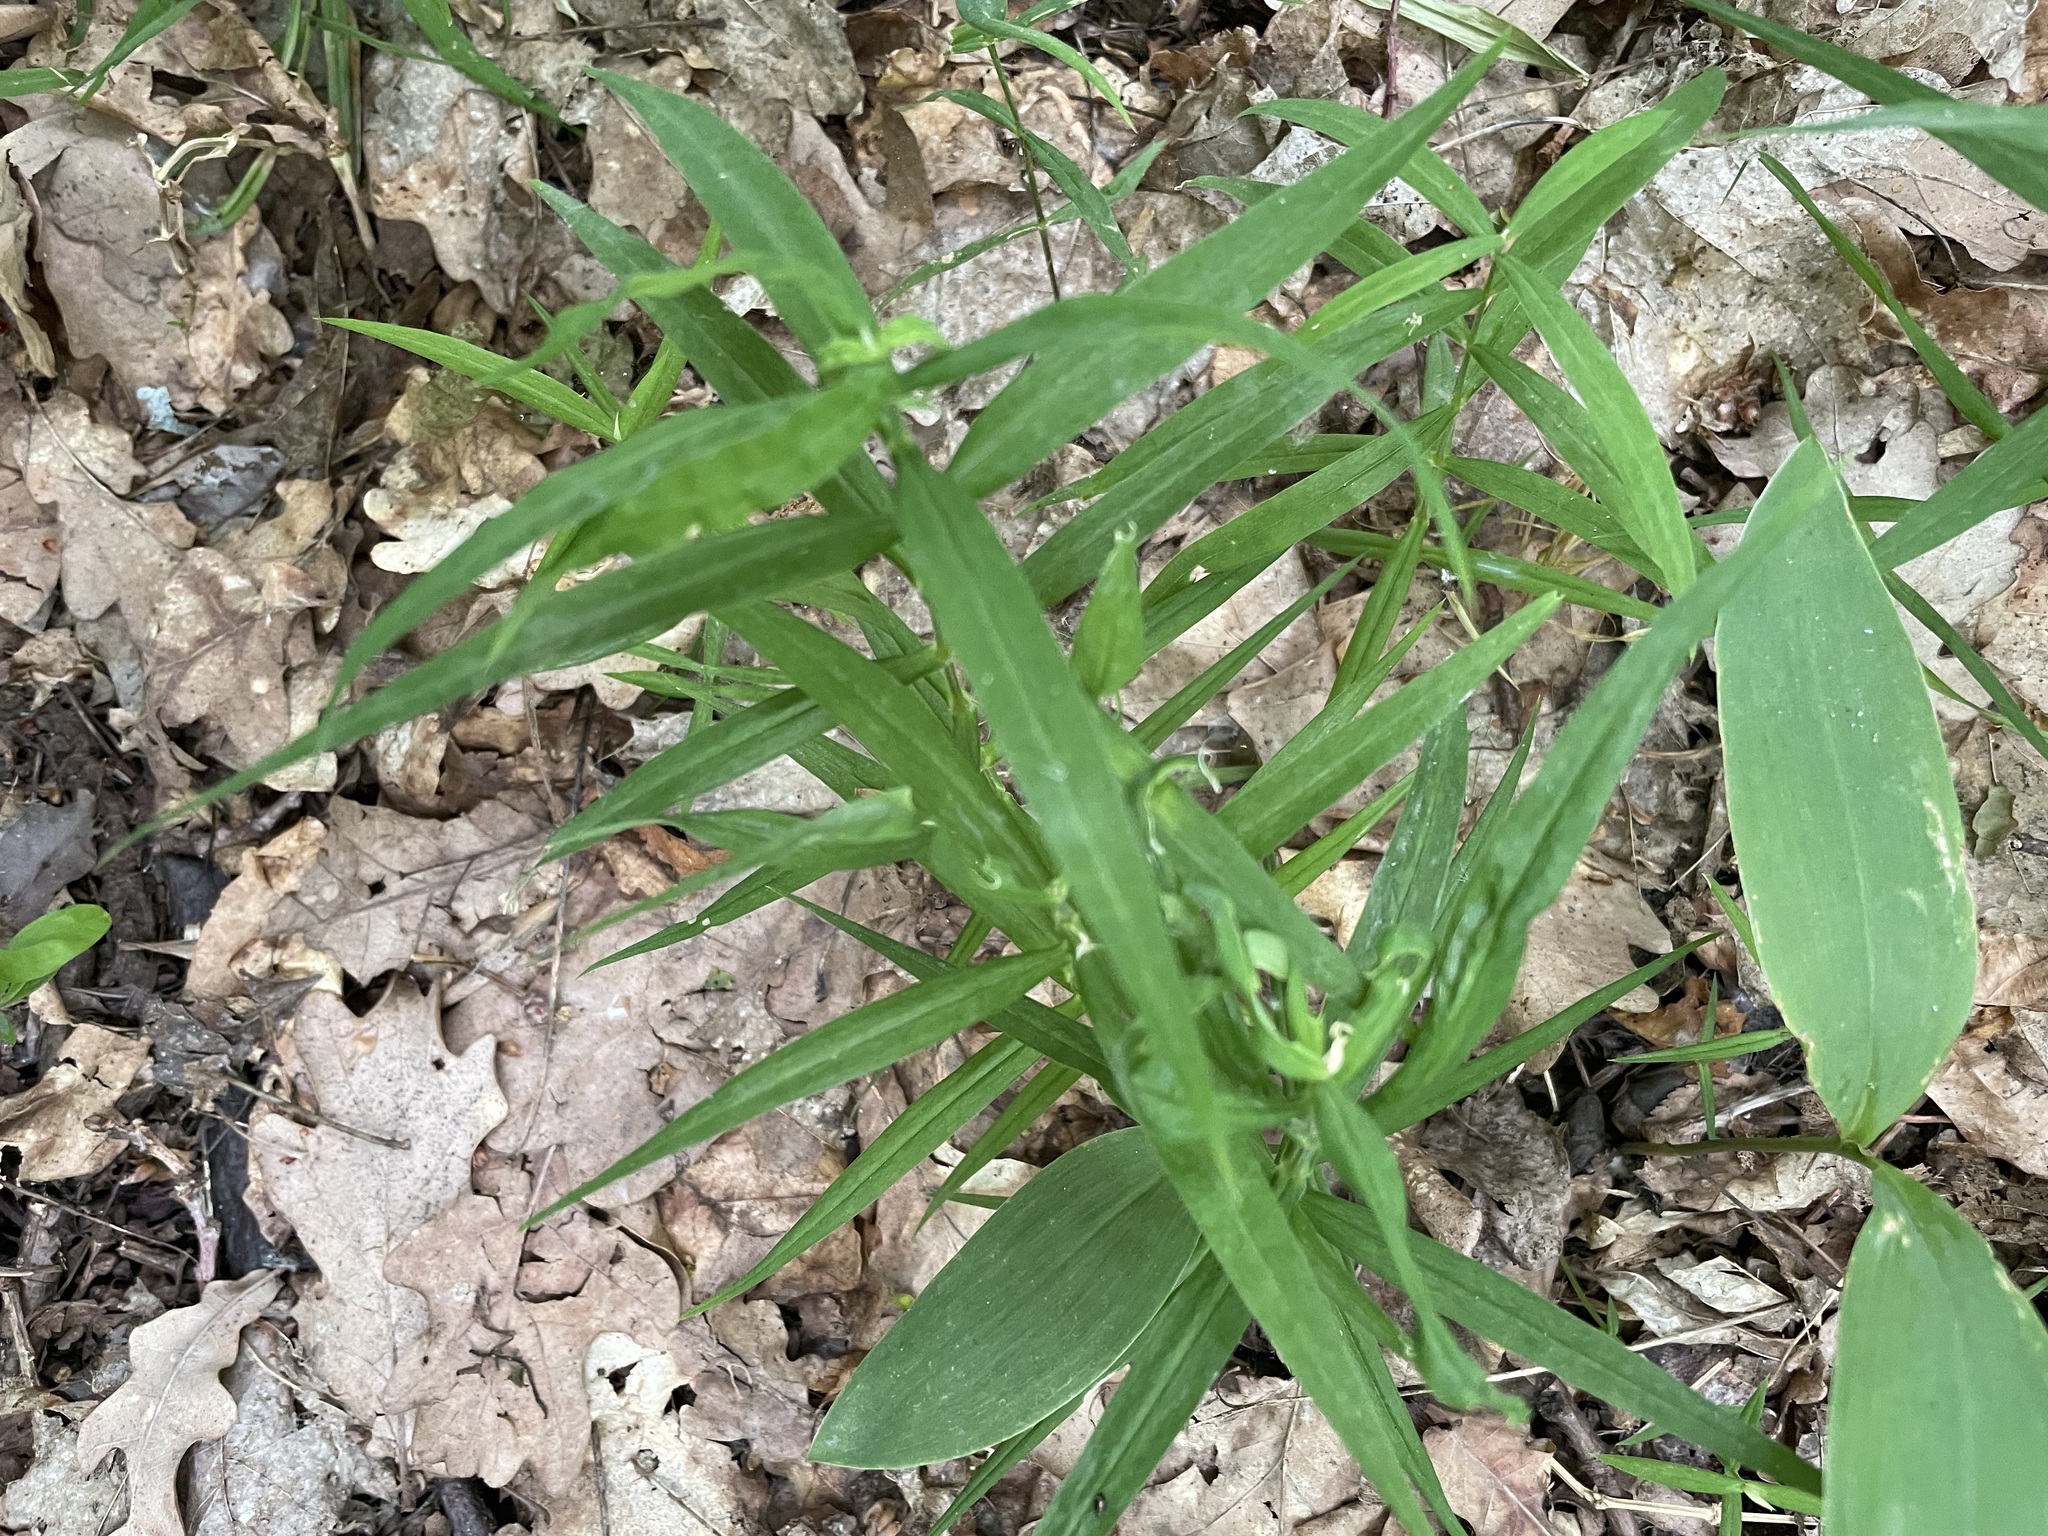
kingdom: Plantae
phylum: Tracheophyta
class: Magnoliopsida
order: Caryophyllales
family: Caryophyllaceae
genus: Rabelera
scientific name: Rabelera holostea
